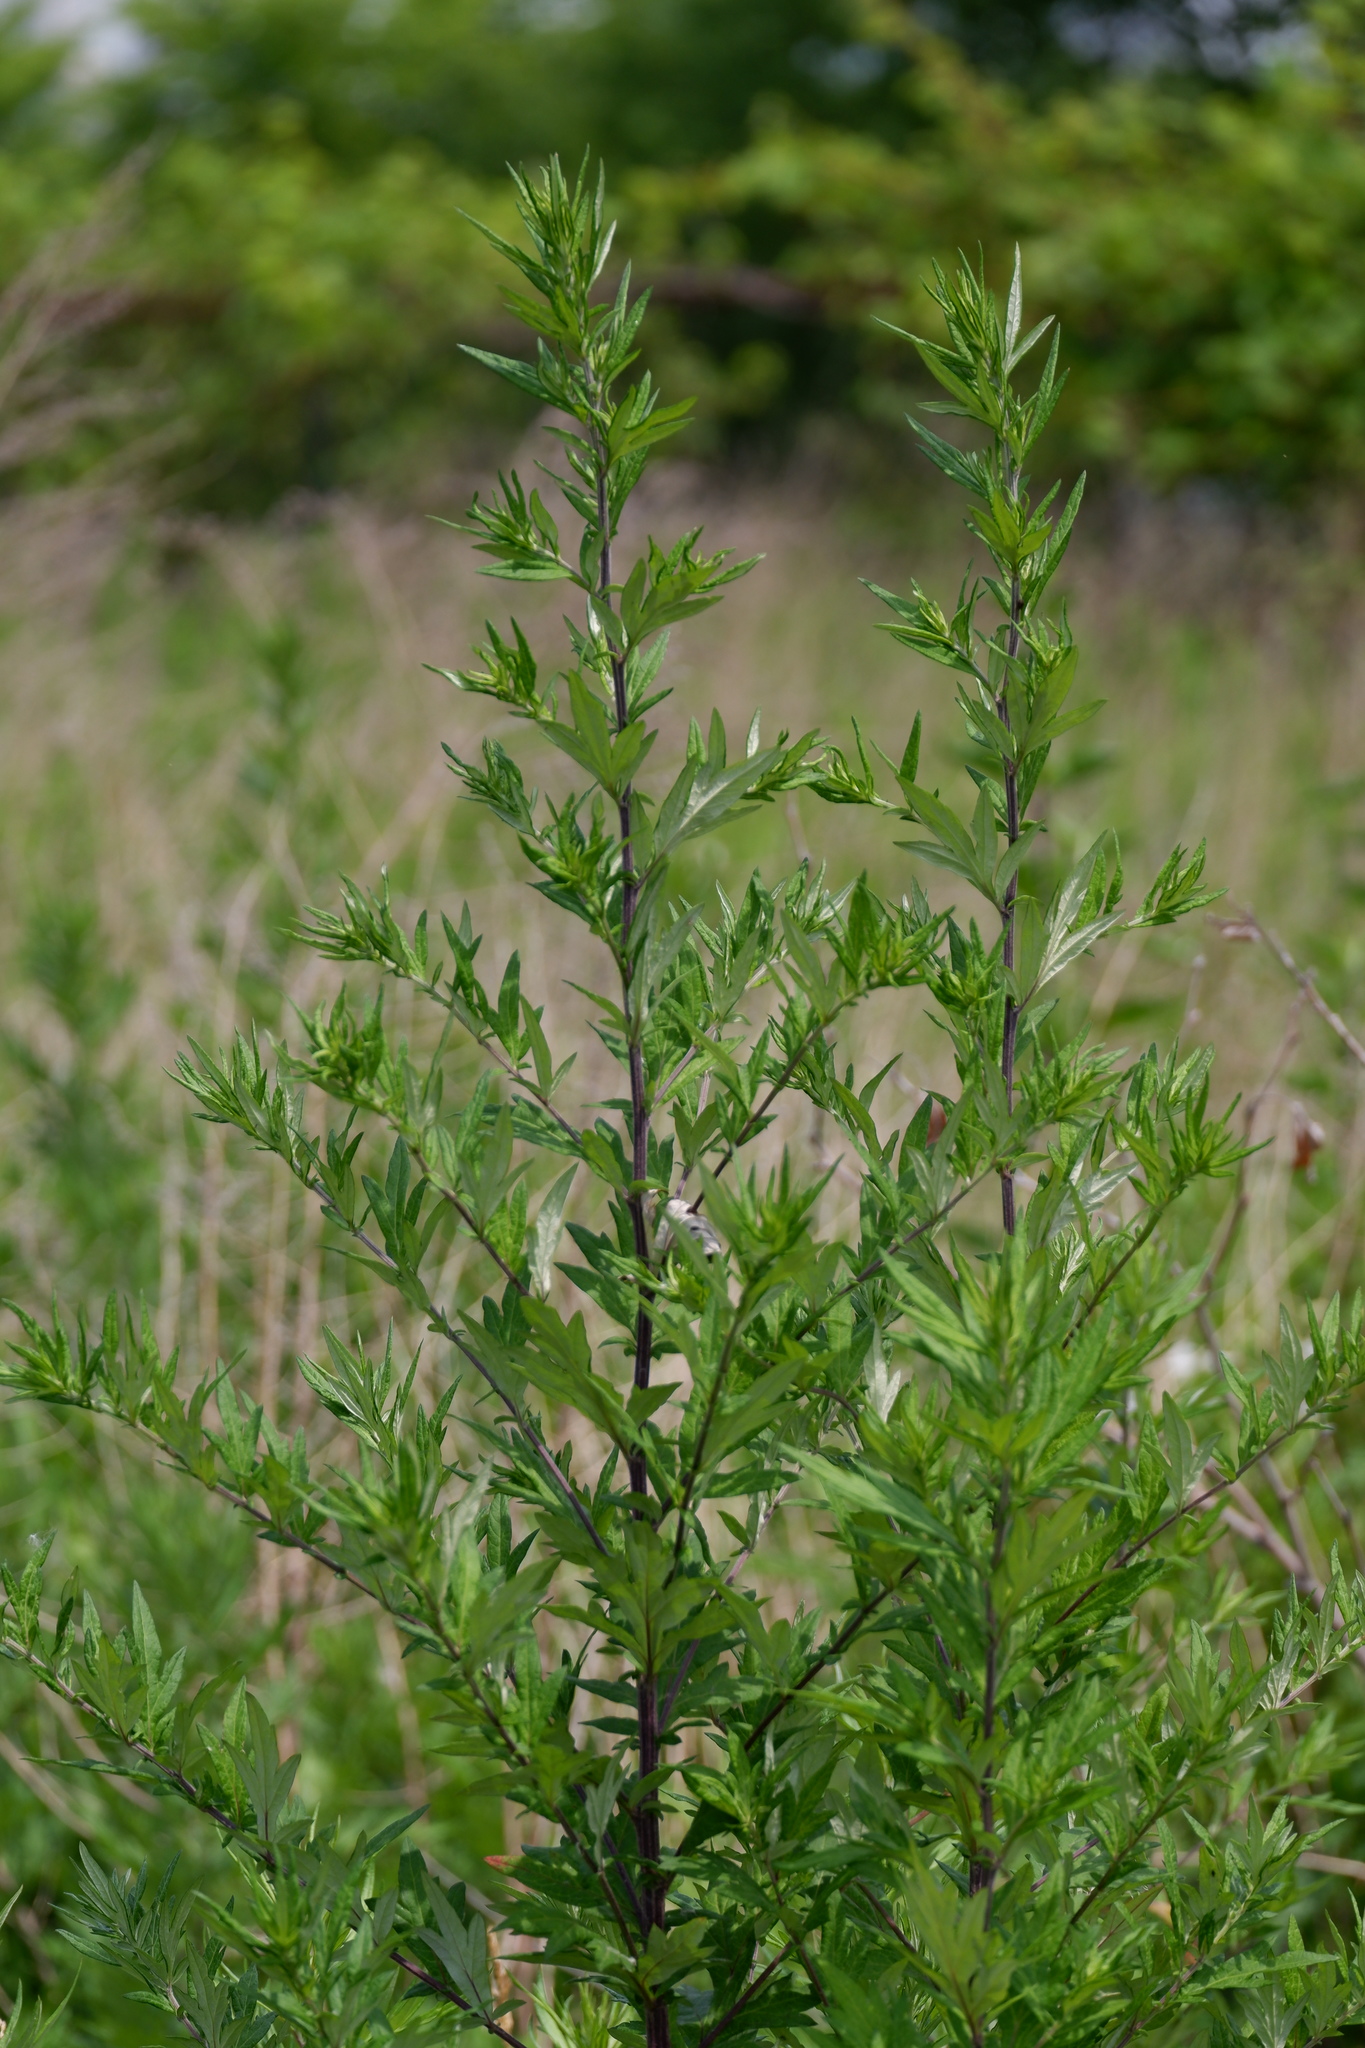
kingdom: Plantae
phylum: Tracheophyta
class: Magnoliopsida
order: Asterales
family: Asteraceae
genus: Artemisia
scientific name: Artemisia vulgaris
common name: Mugwort
